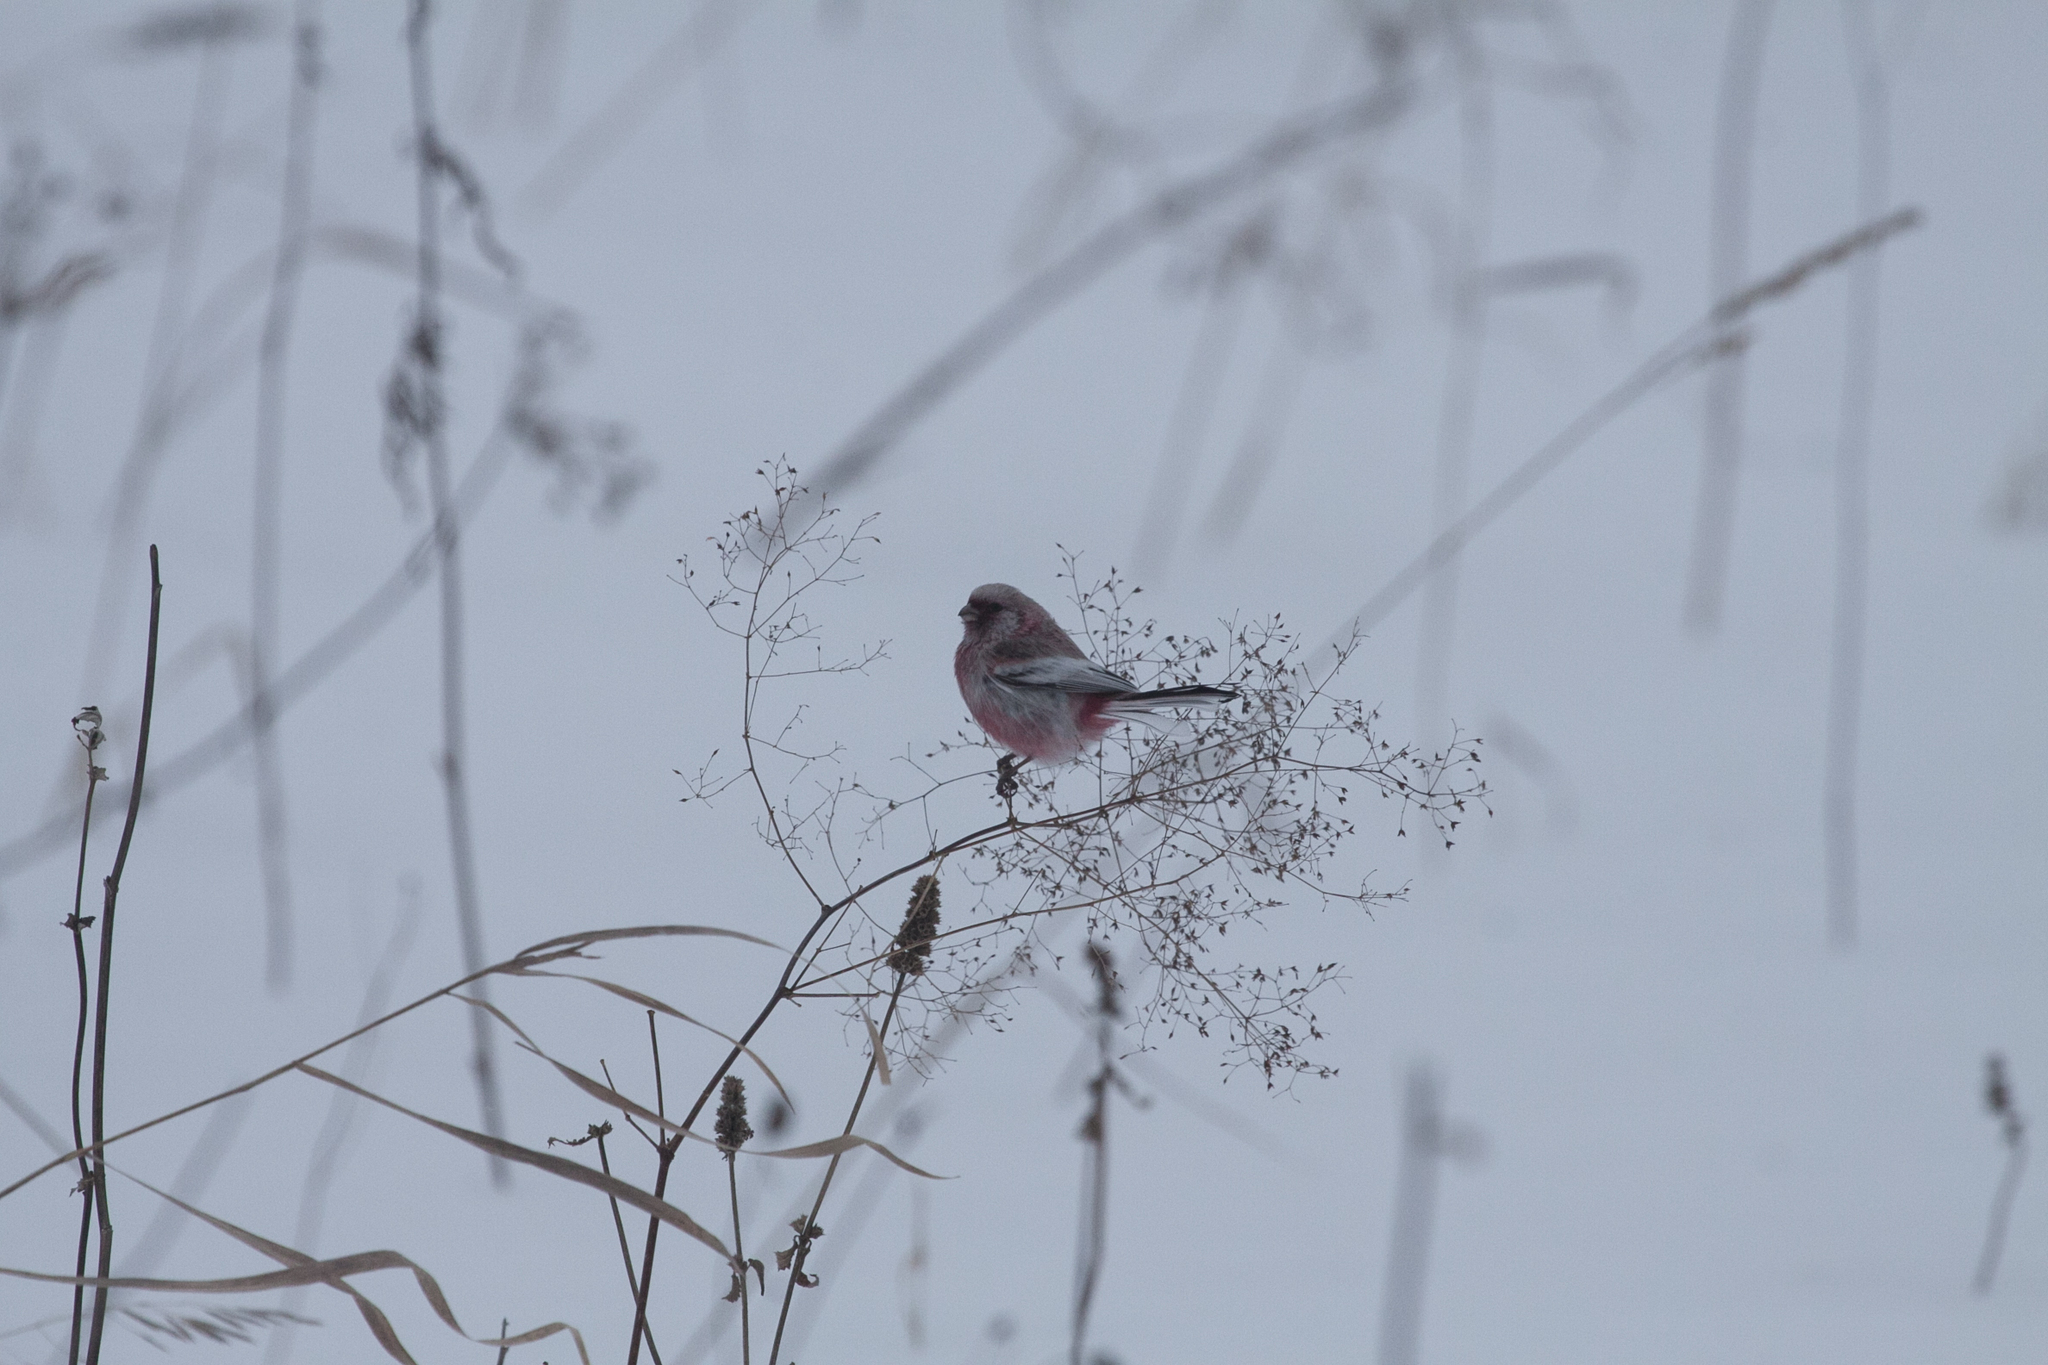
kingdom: Animalia
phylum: Chordata
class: Aves
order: Passeriformes
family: Fringillidae
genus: Carpodacus
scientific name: Carpodacus sibiricus
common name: Long-tailed rosefinch
